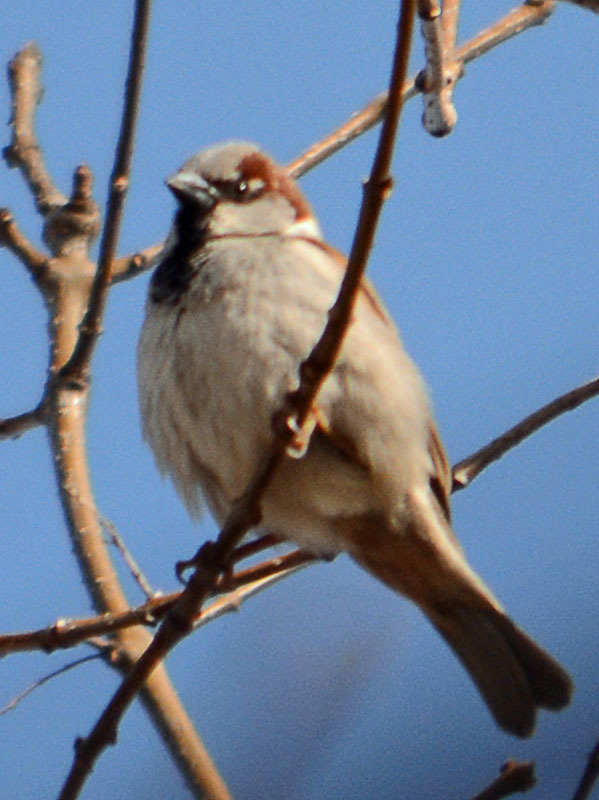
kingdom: Animalia
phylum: Chordata
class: Aves
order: Passeriformes
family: Passeridae
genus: Passer
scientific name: Passer domesticus
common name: House sparrow
